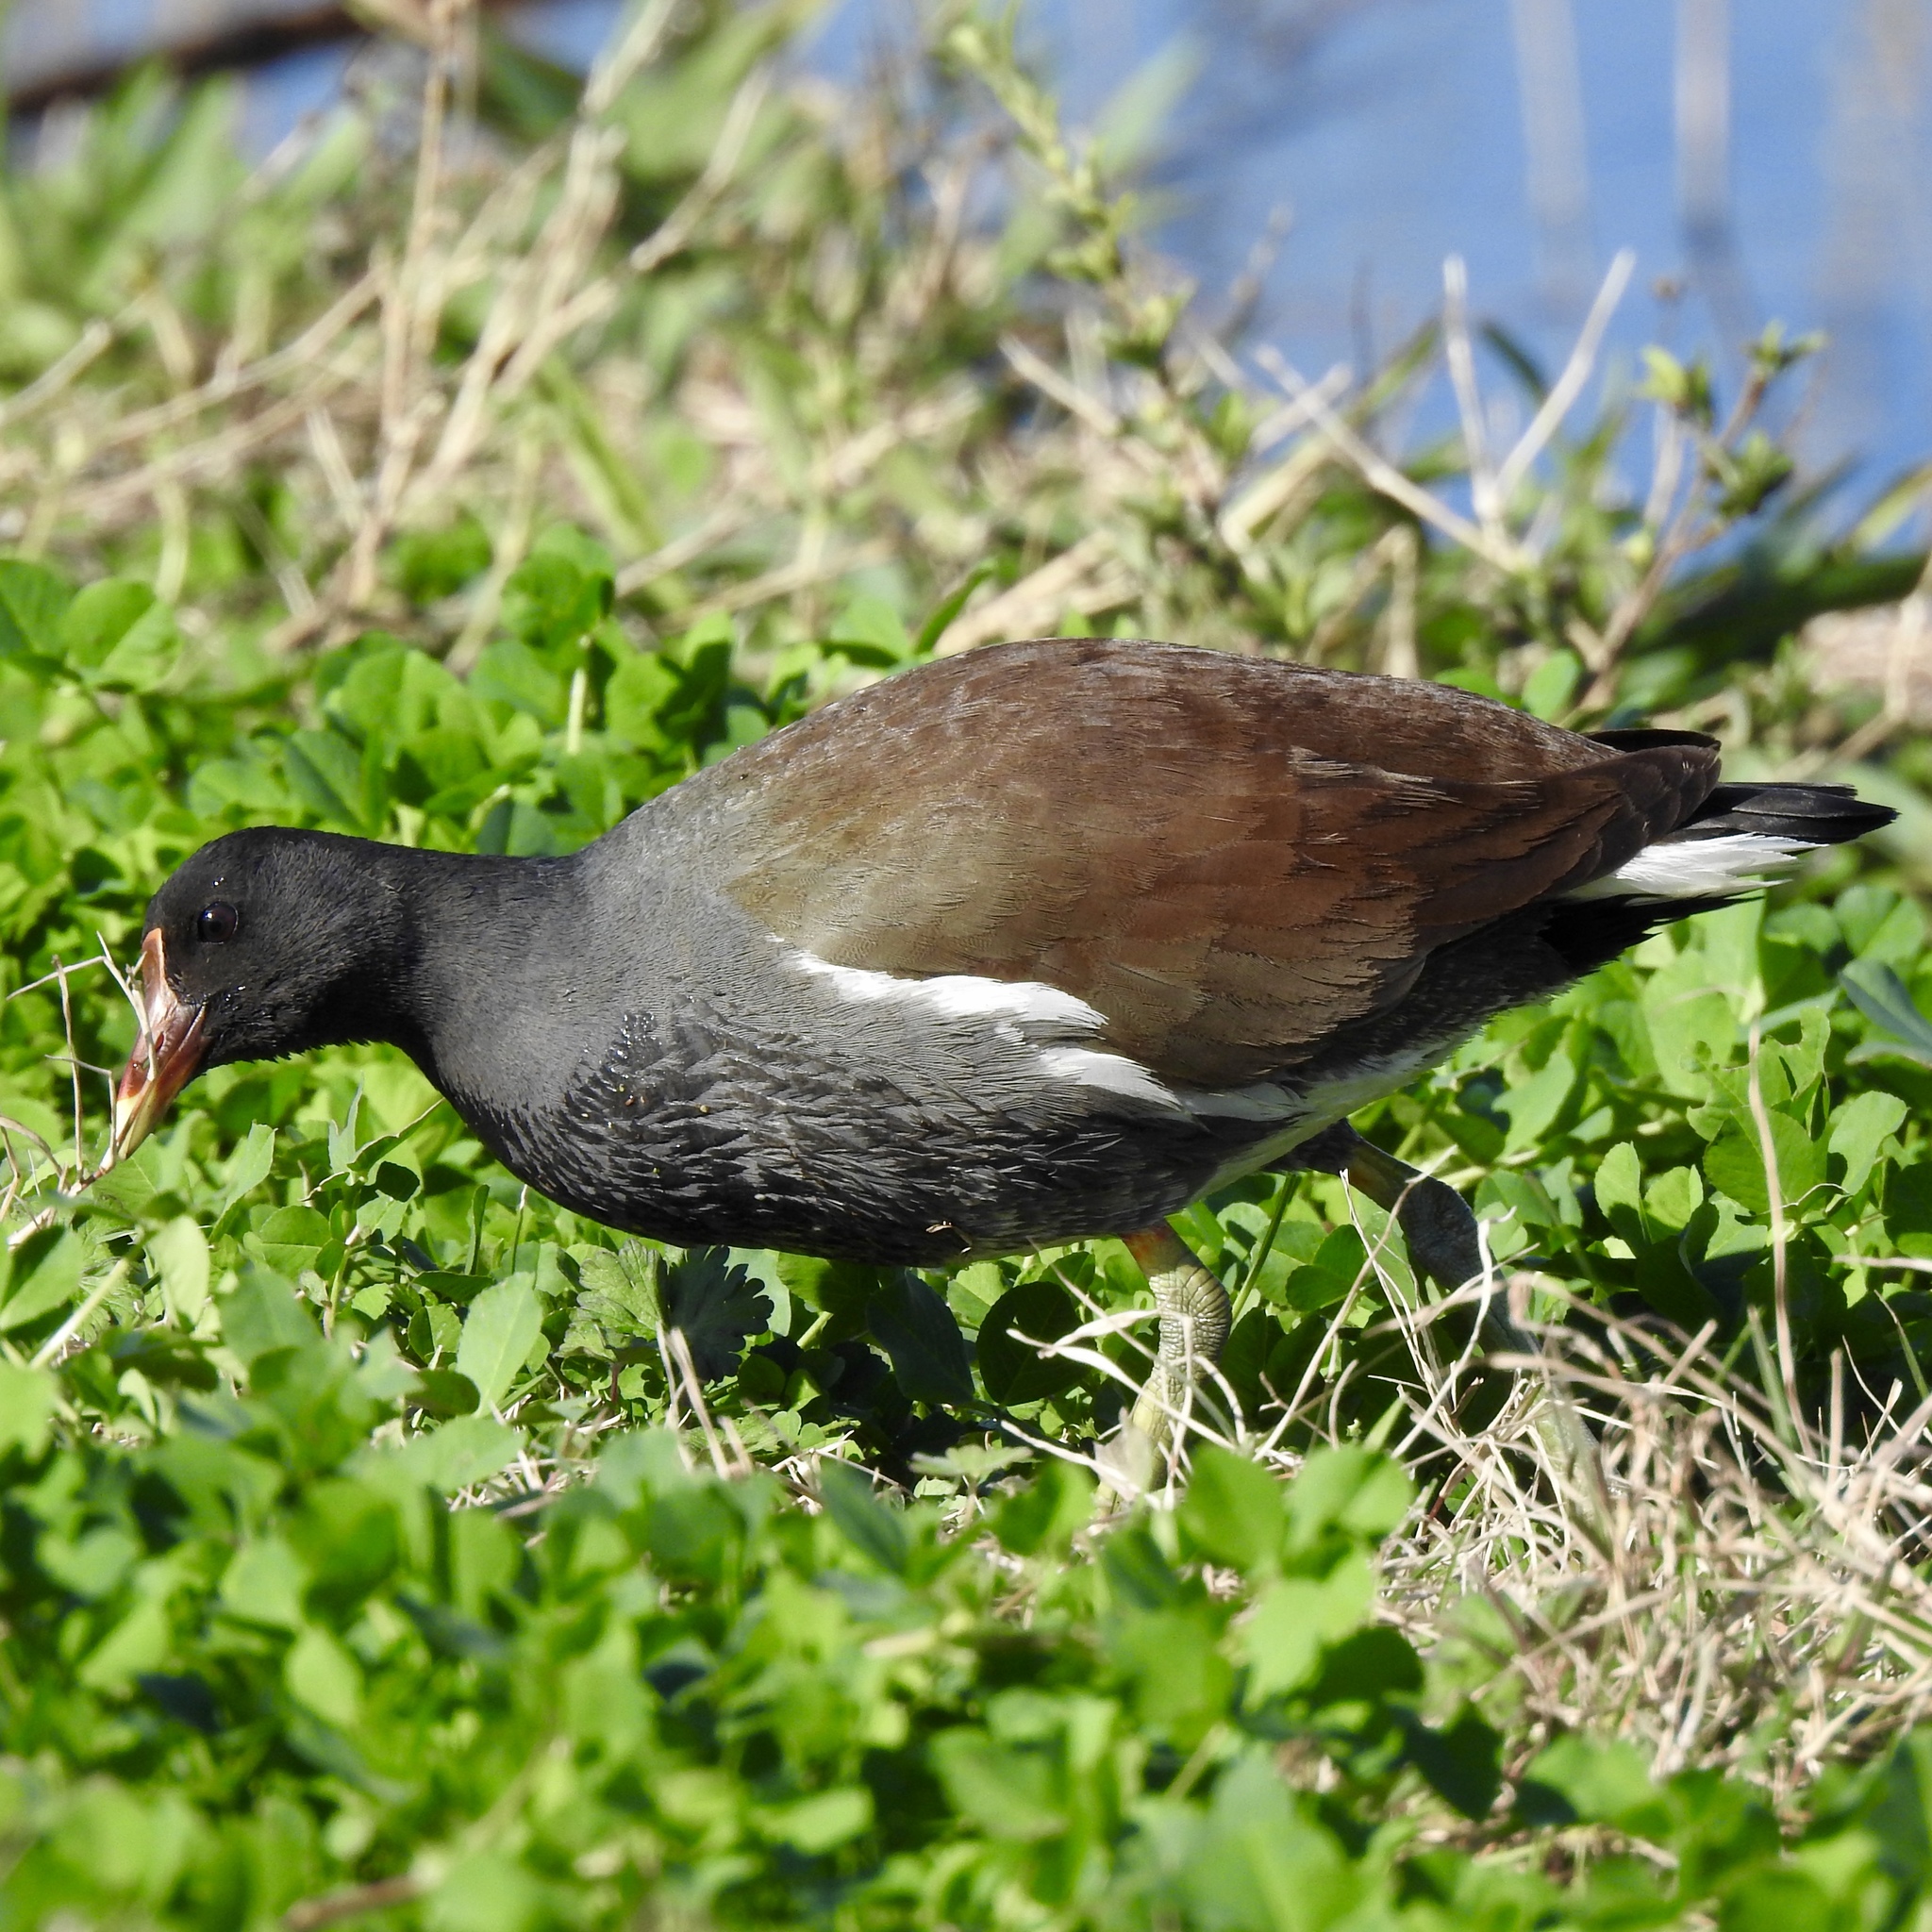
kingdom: Animalia
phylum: Chordata
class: Aves
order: Gruiformes
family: Rallidae
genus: Gallinula
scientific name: Gallinula chloropus
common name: Common moorhen
